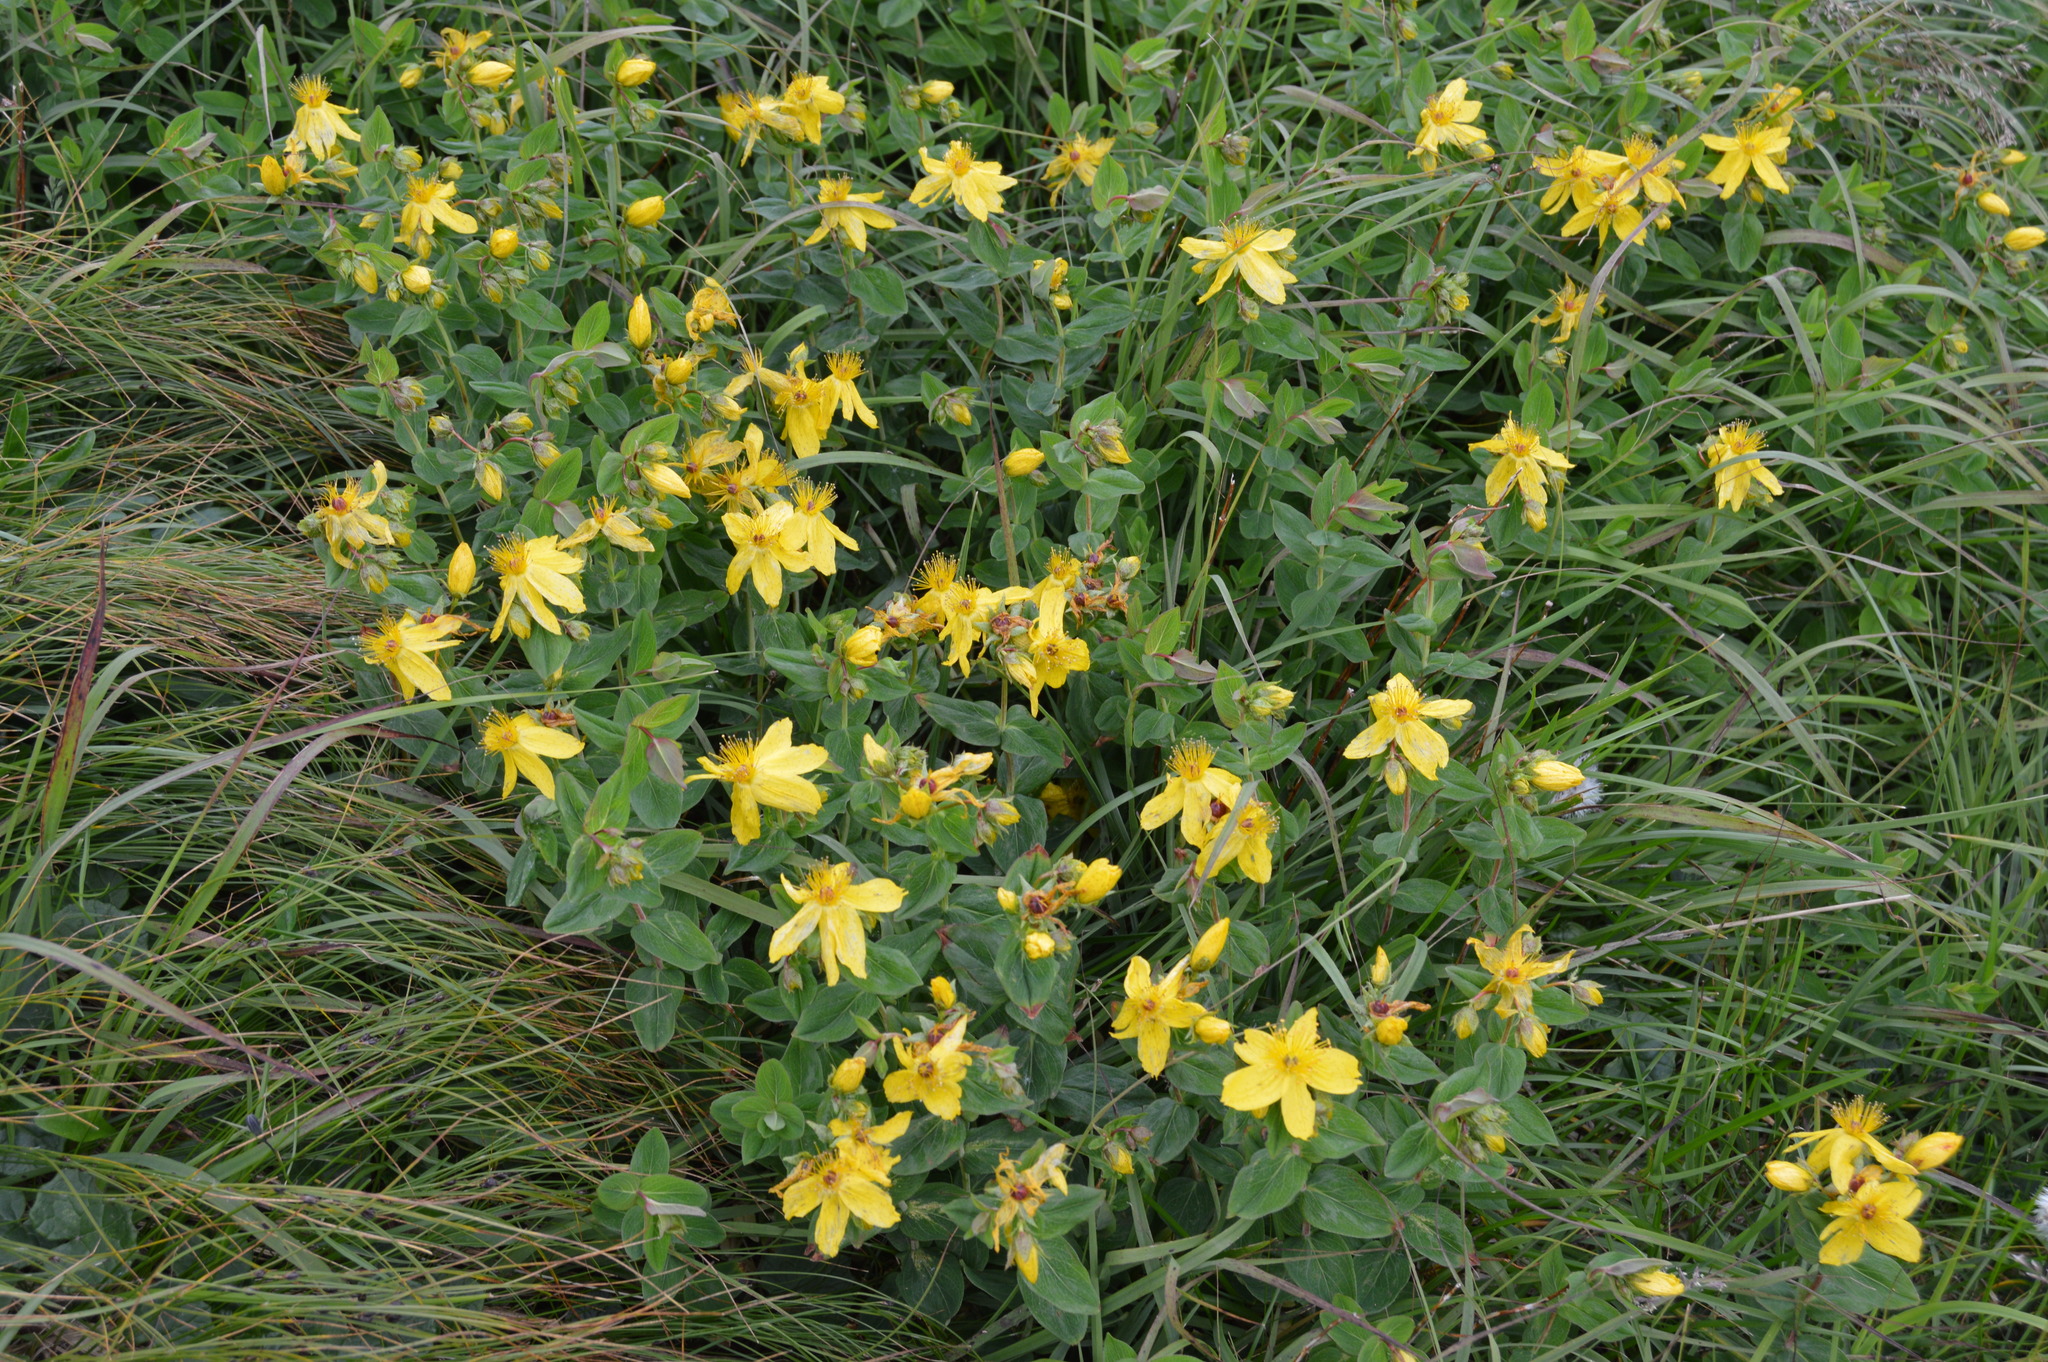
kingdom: Plantae
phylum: Tracheophyta
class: Magnoliopsida
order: Malpighiales
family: Hypericaceae
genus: Hypericum
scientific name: Hypericum richeri
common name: Alpine st john's-wort
